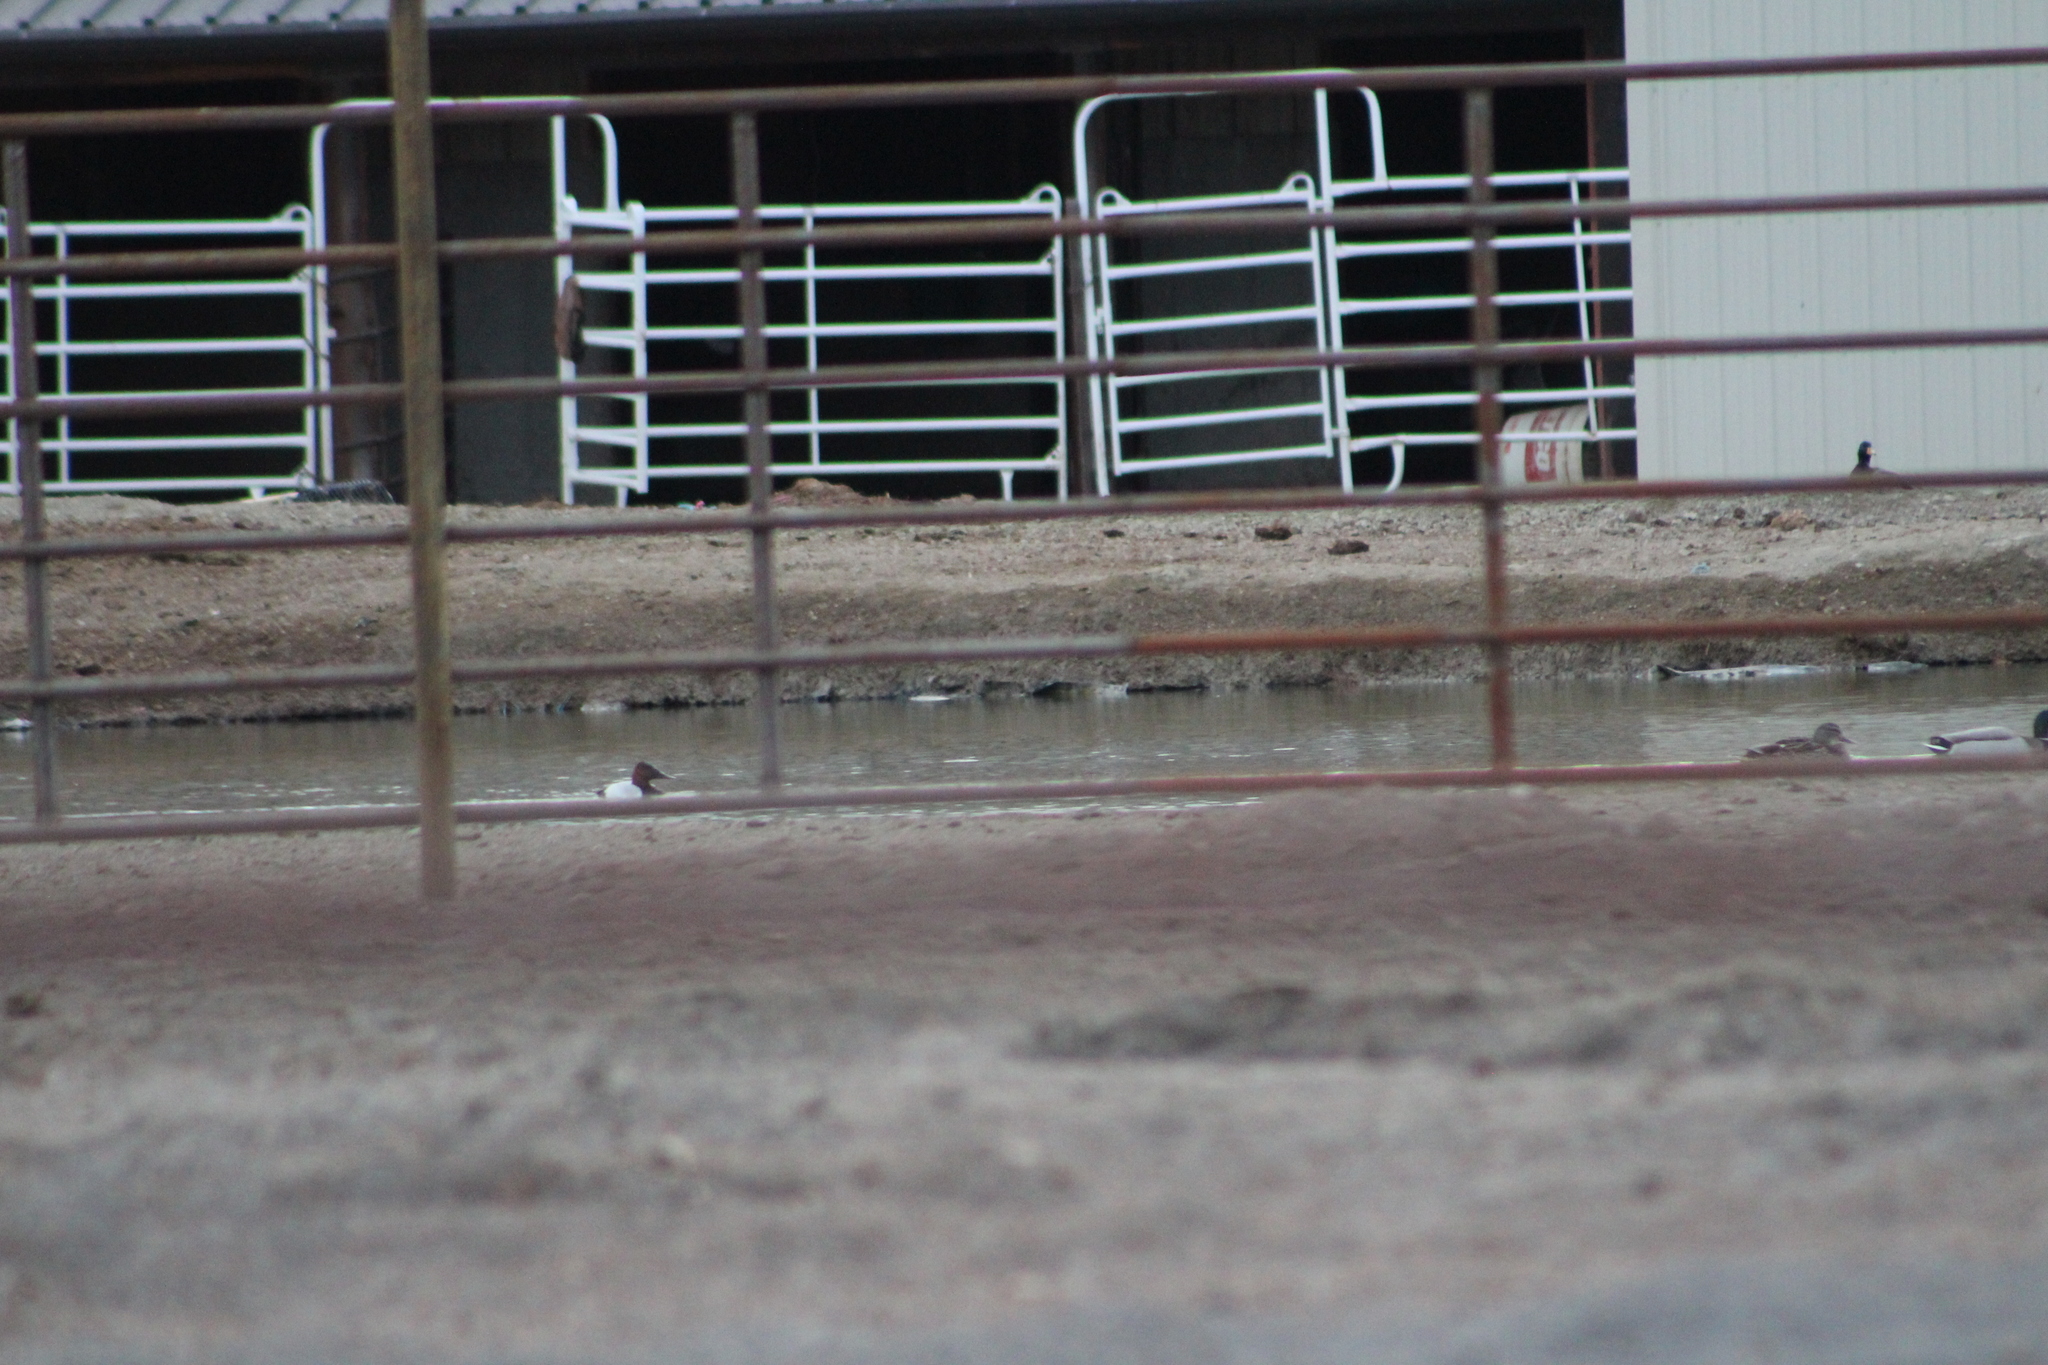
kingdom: Animalia
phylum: Chordata
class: Aves
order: Anseriformes
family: Anatidae
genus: Aythya
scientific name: Aythya valisineria
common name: Canvasback
